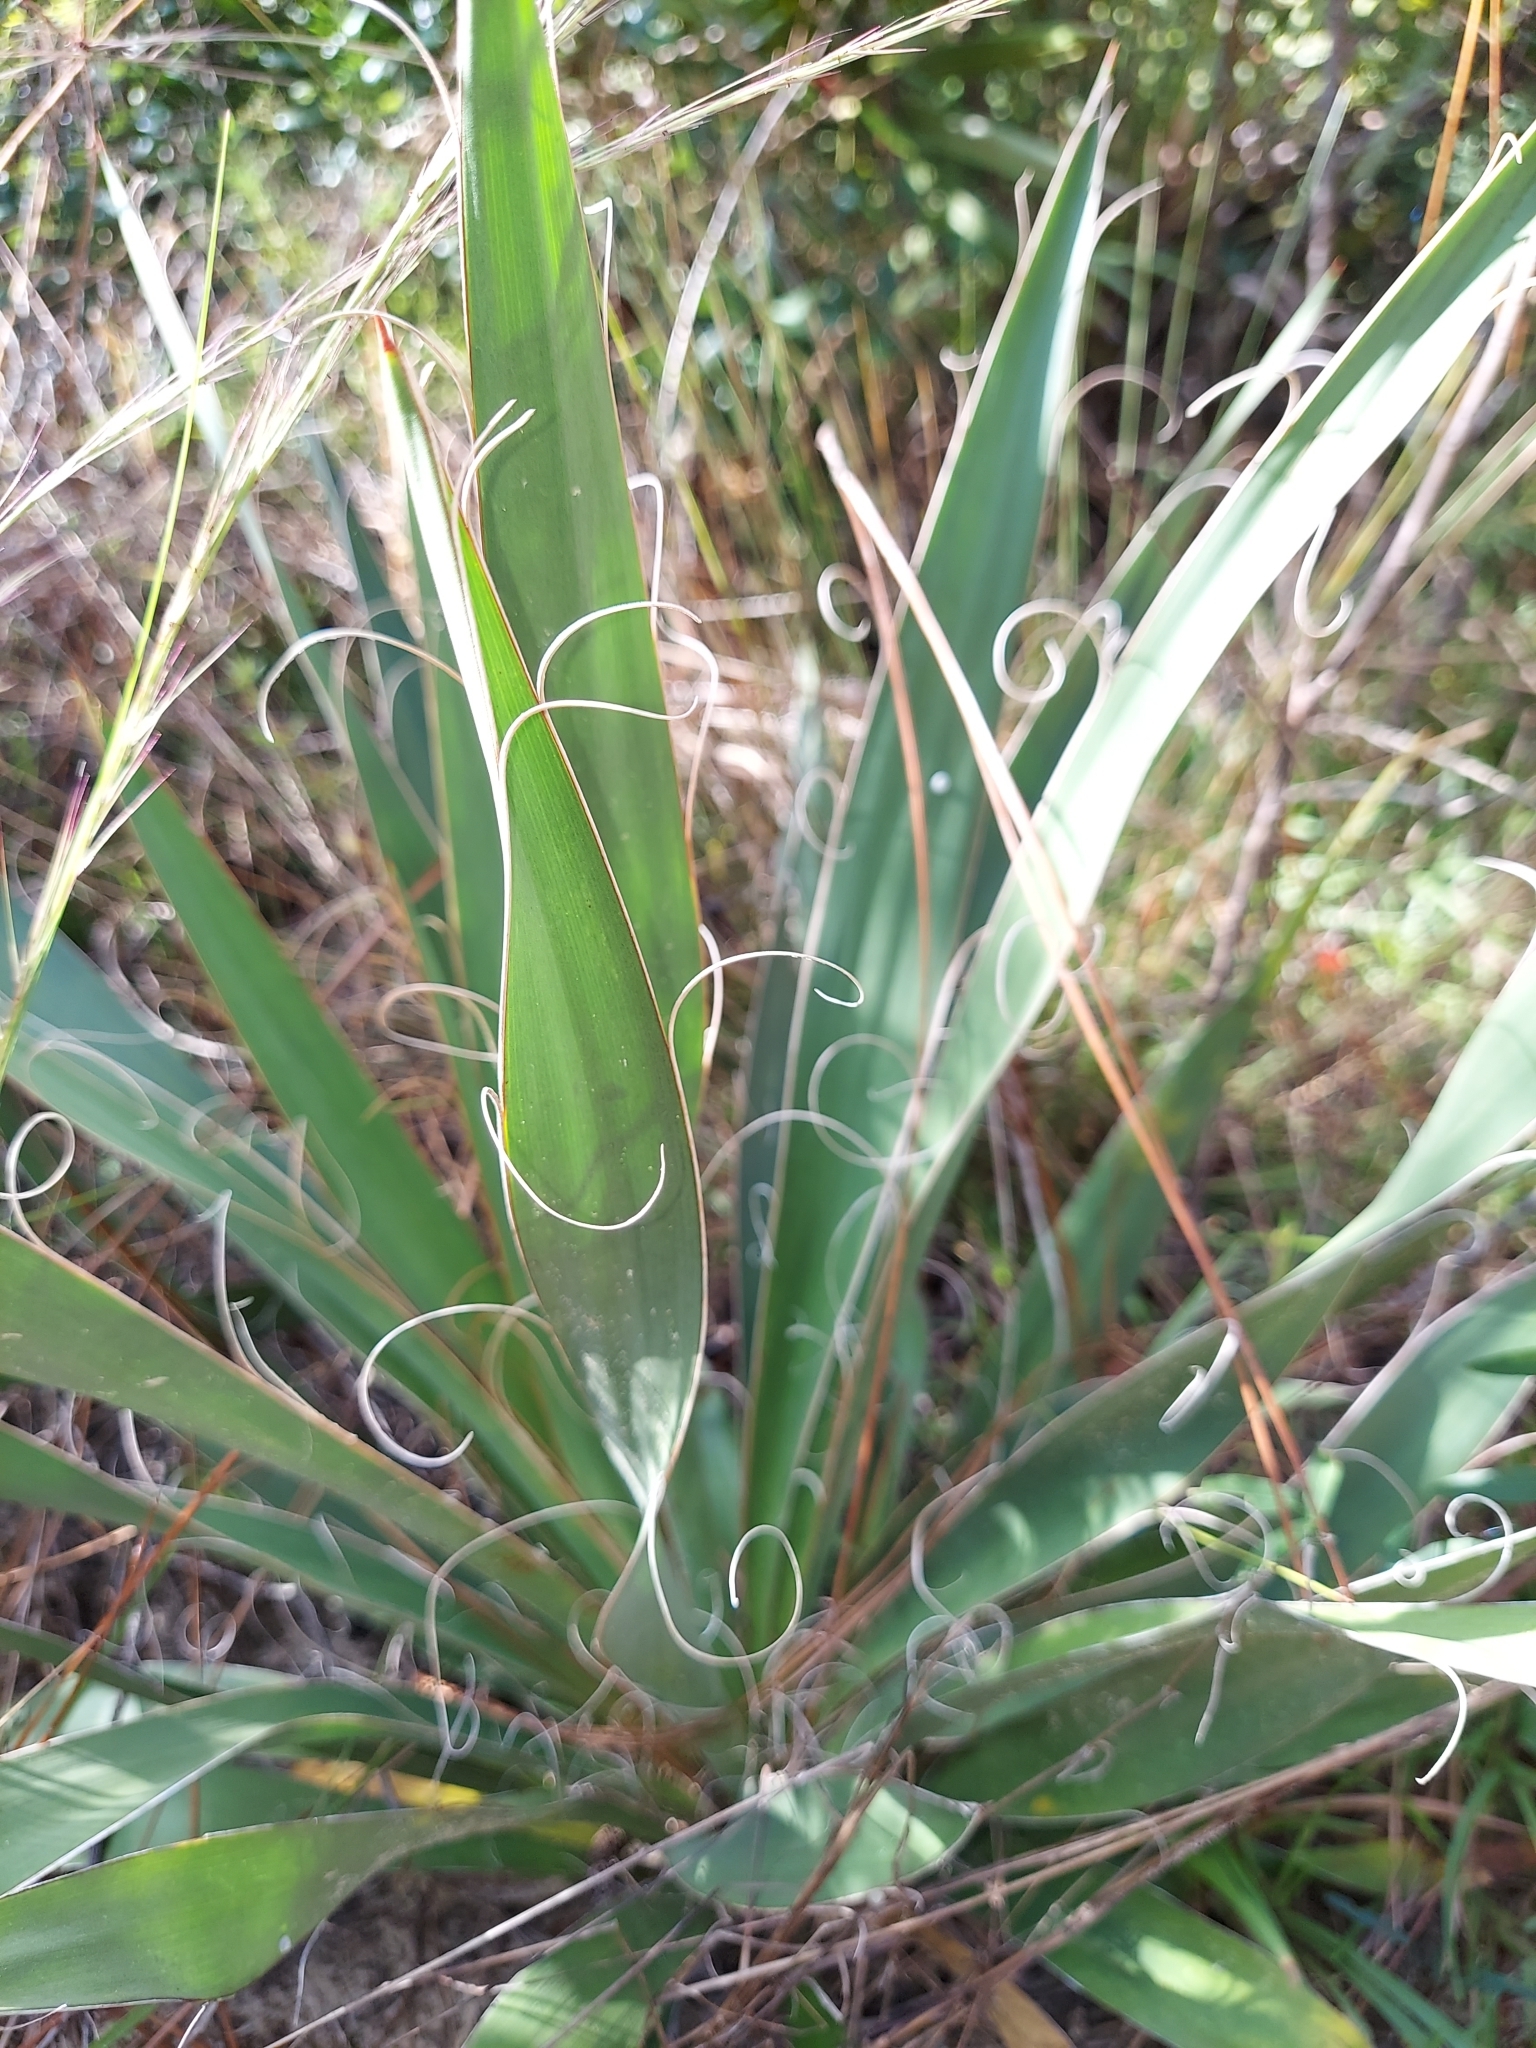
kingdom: Plantae
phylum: Tracheophyta
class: Liliopsida
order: Asparagales
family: Asparagaceae
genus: Yucca
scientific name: Yucca filamentosa
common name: Adam's-needle
